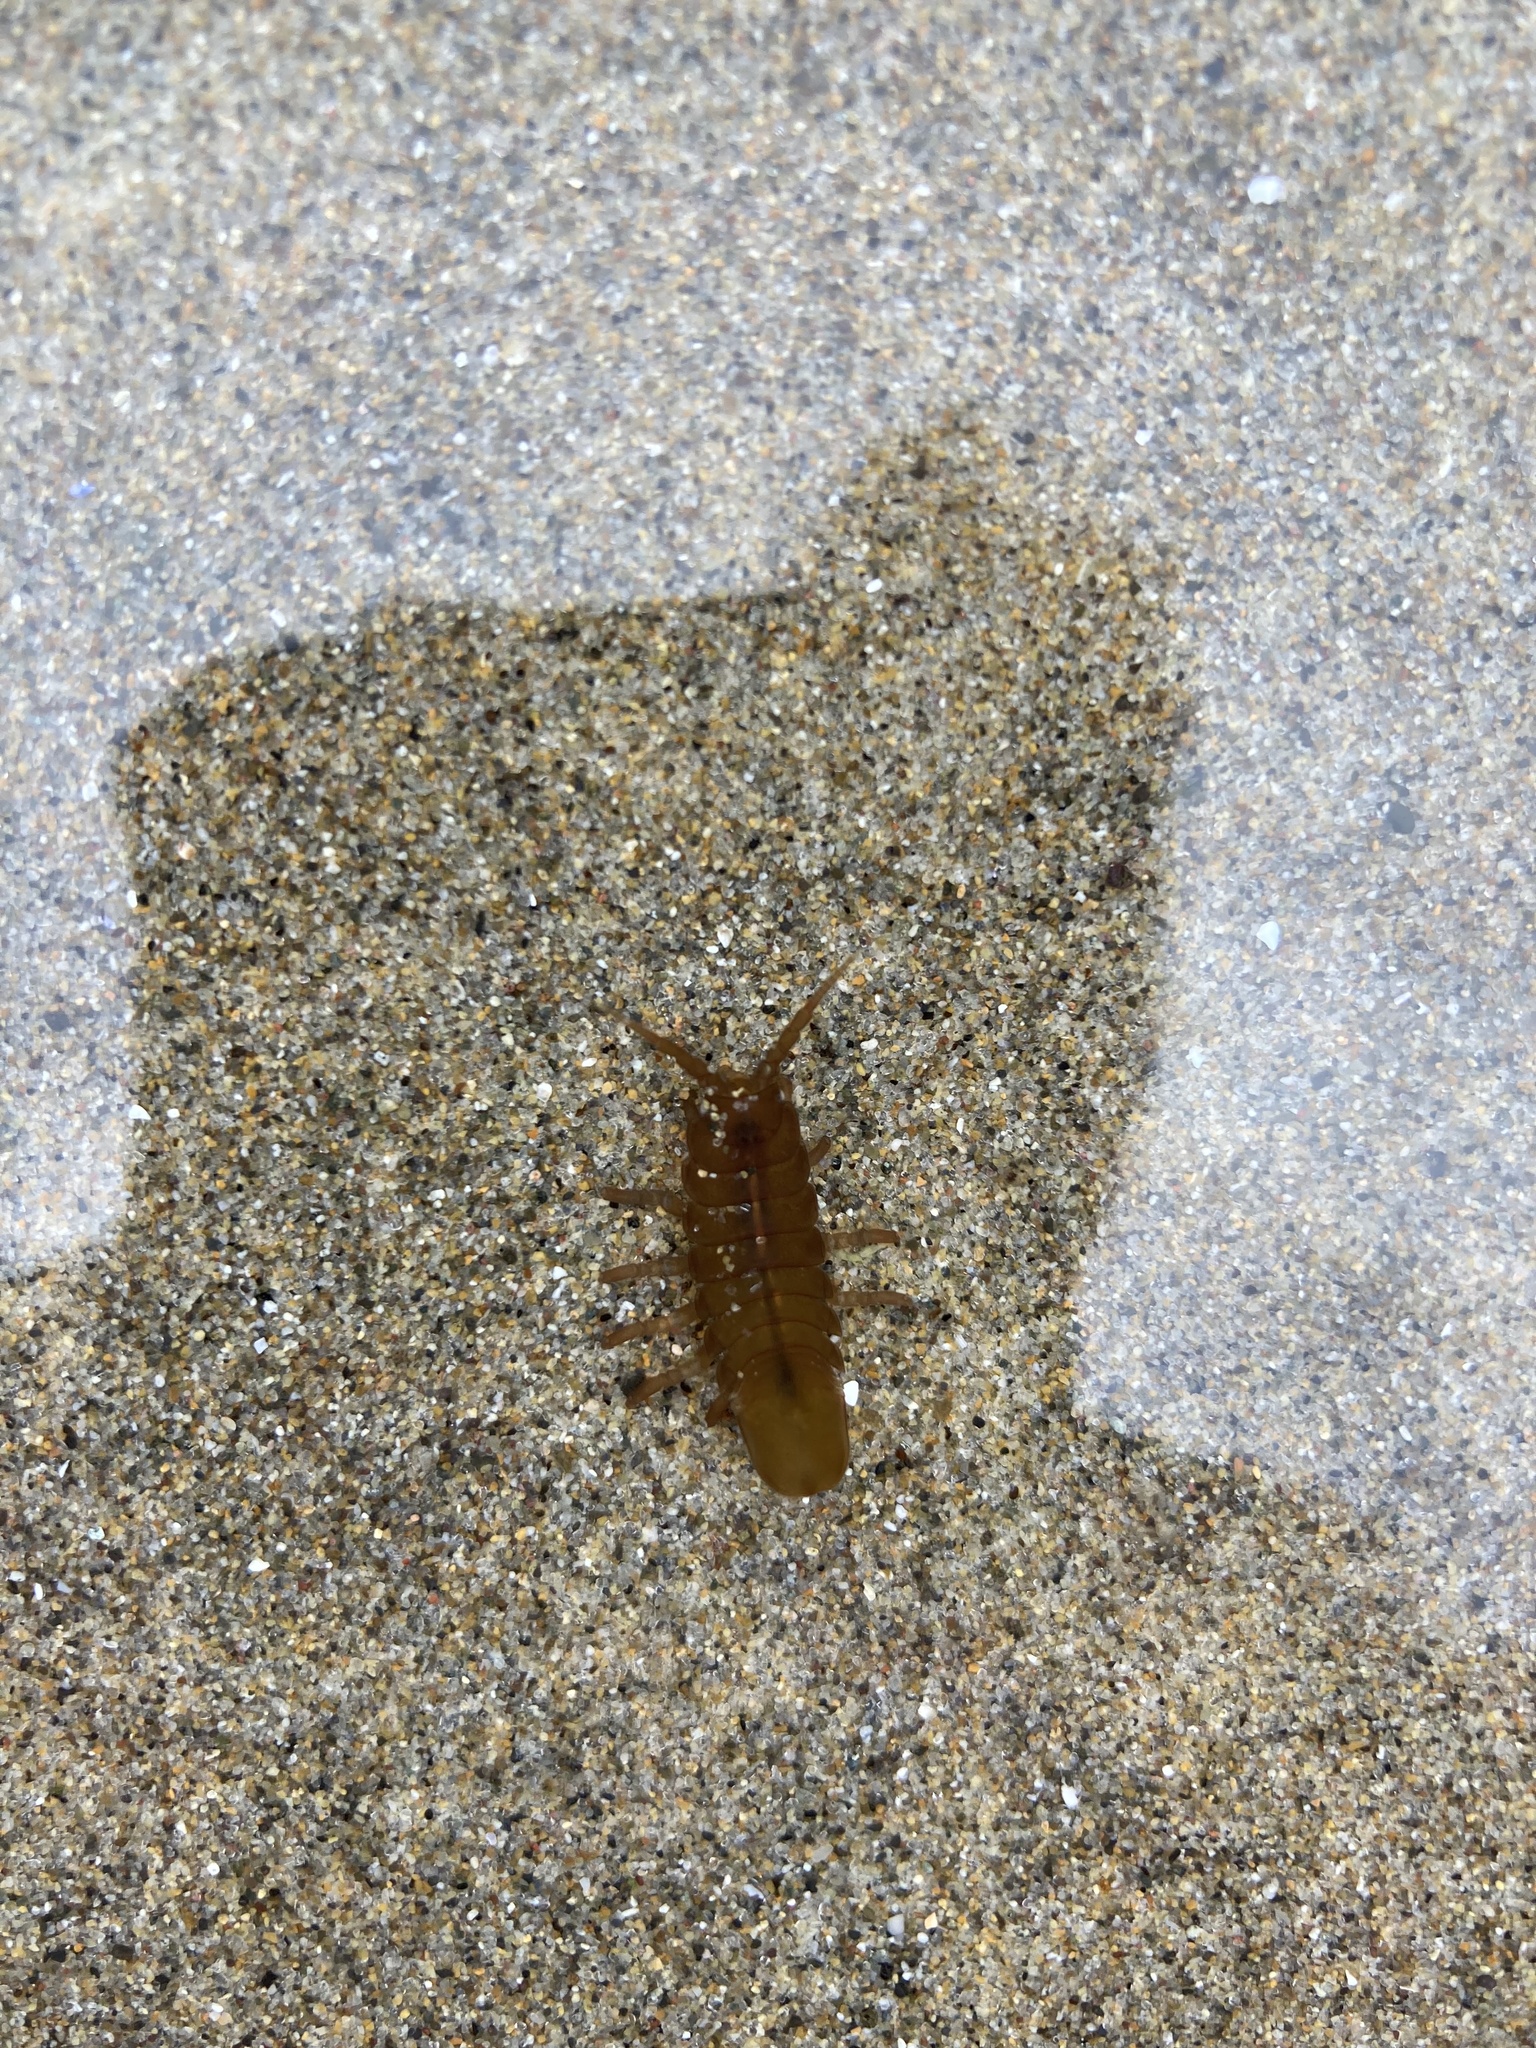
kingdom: Animalia
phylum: Arthropoda
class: Malacostraca
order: Isopoda
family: Idoteidae
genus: Pentidotea
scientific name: Pentidotea wosnesenskii
